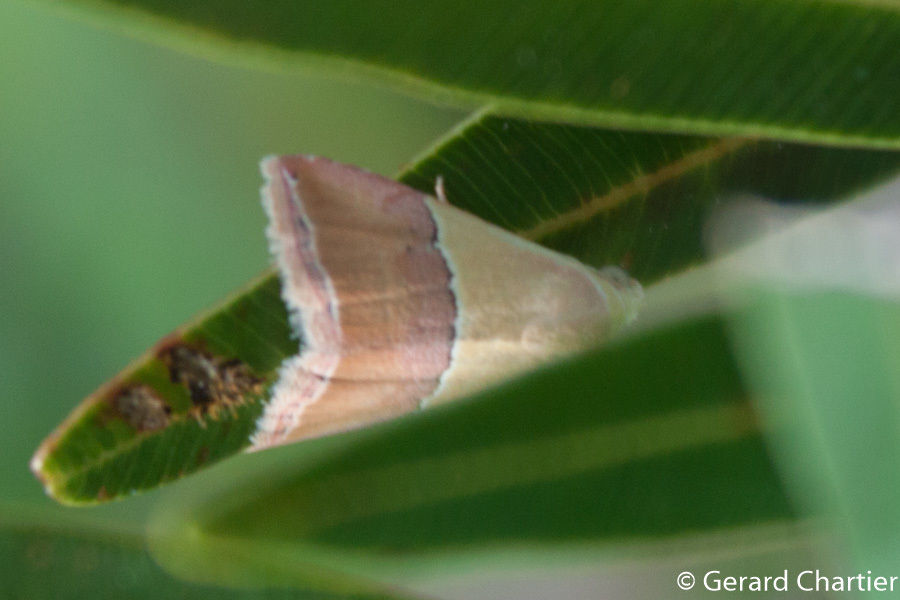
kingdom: Animalia
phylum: Arthropoda
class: Insecta
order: Lepidoptera
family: Noctuidae
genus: Eublemma
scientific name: Eublemma accedens
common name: Moth
